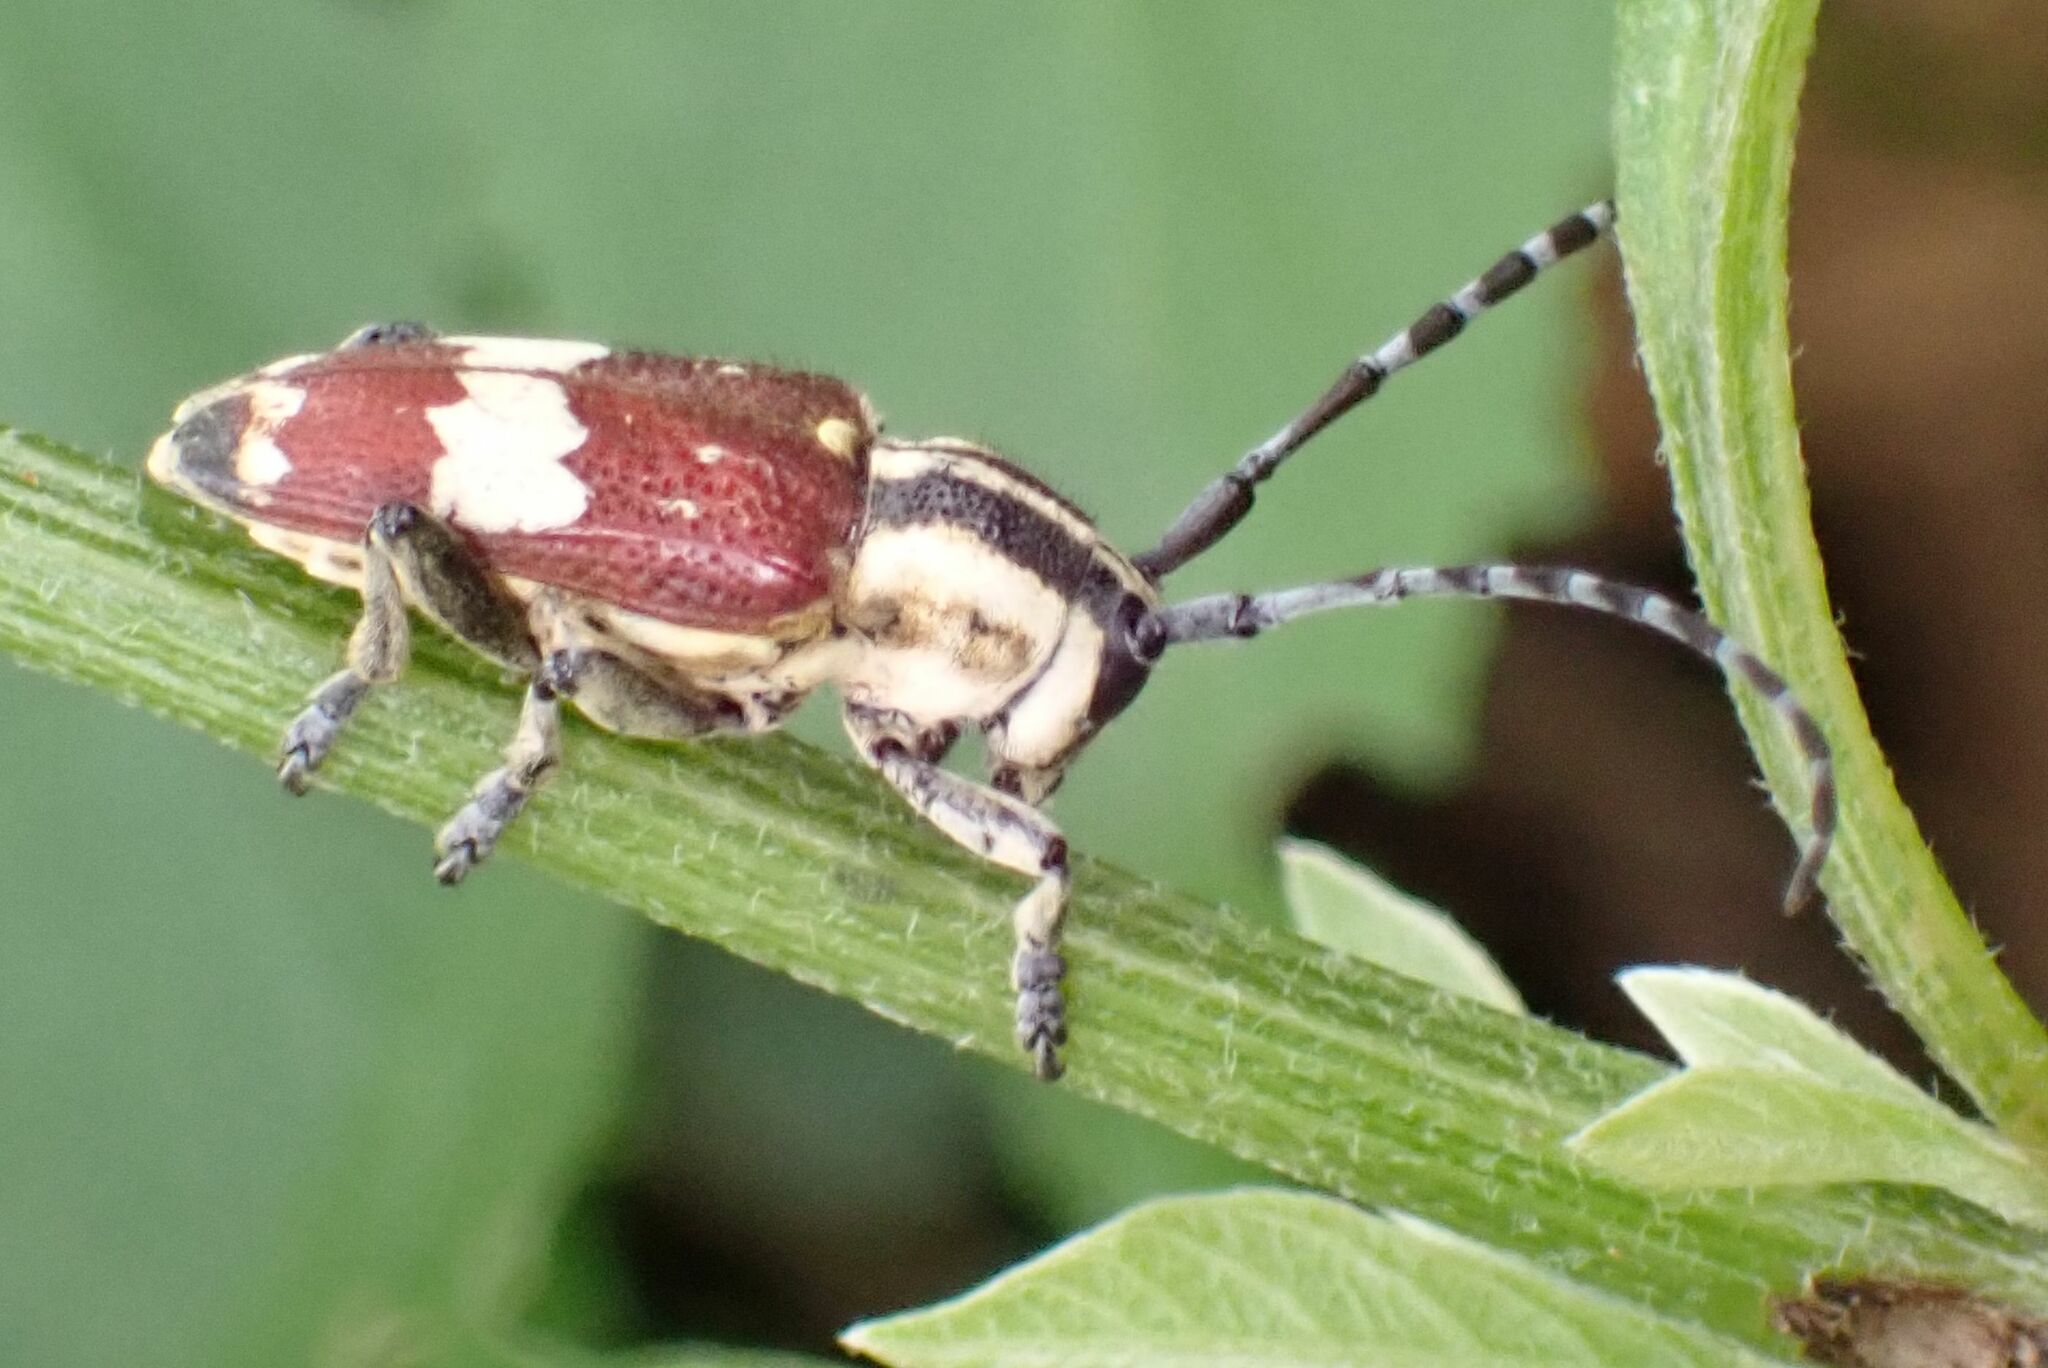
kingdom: Animalia
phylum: Arthropoda
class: Insecta
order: Coleoptera
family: Cerambycidae
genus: Glenea
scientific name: Glenea apicalis
